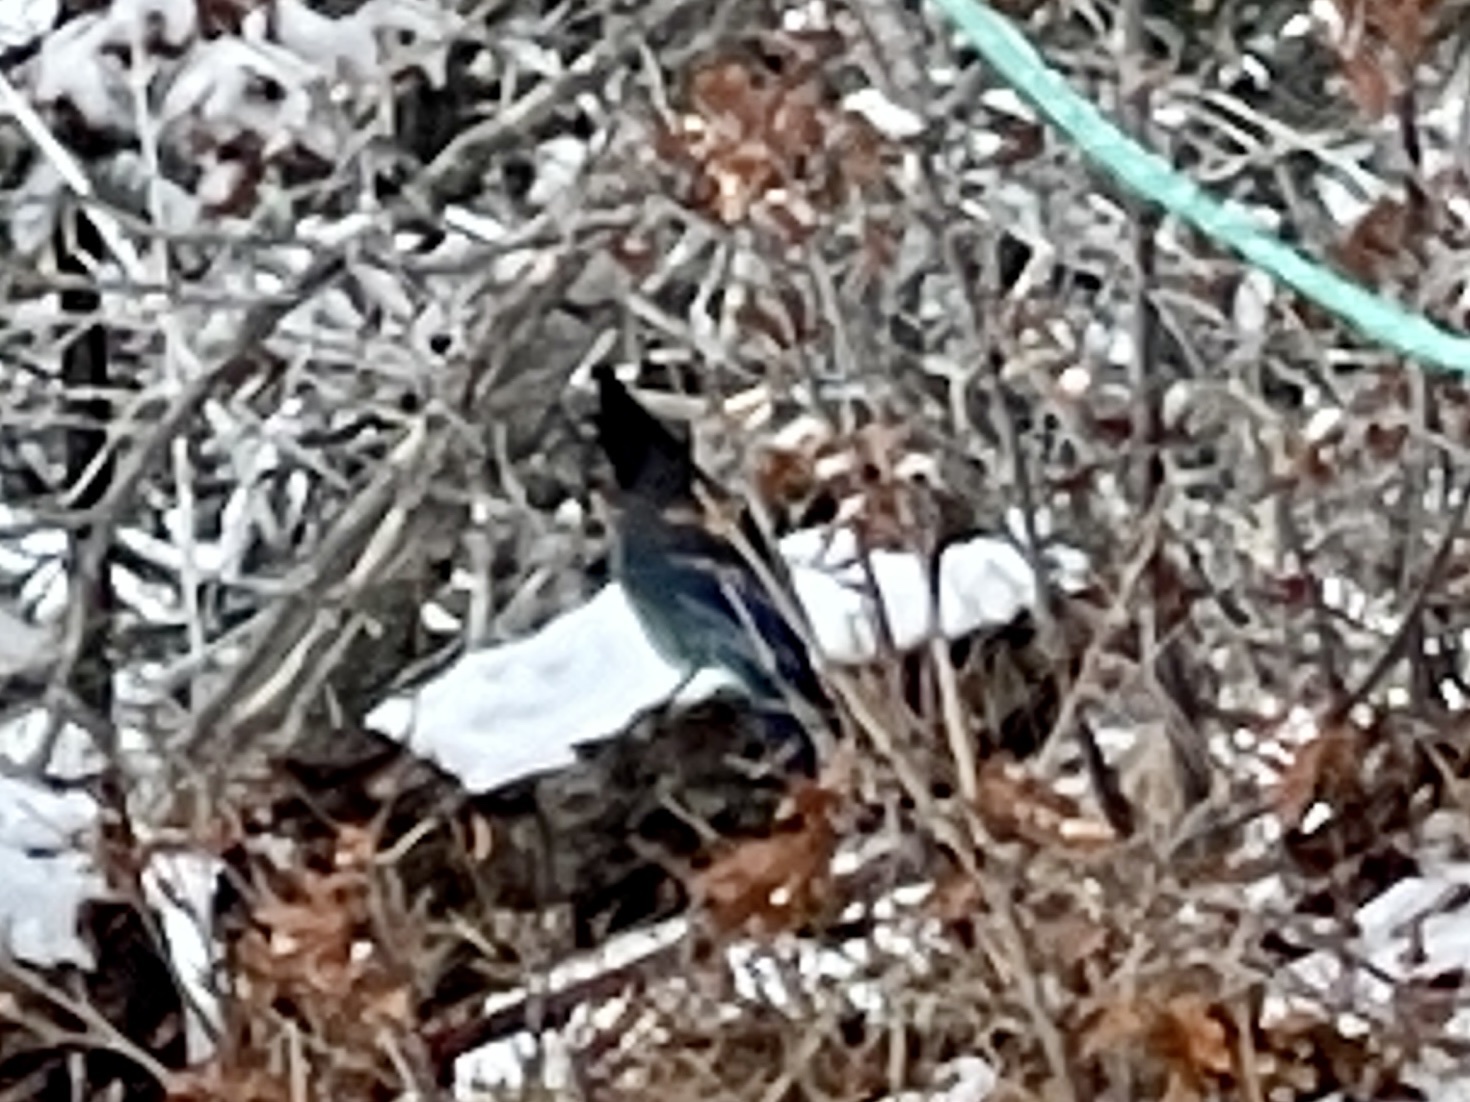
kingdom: Animalia
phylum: Chordata
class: Aves
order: Passeriformes
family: Corvidae
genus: Cyanocitta
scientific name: Cyanocitta stelleri
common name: Steller's jay
